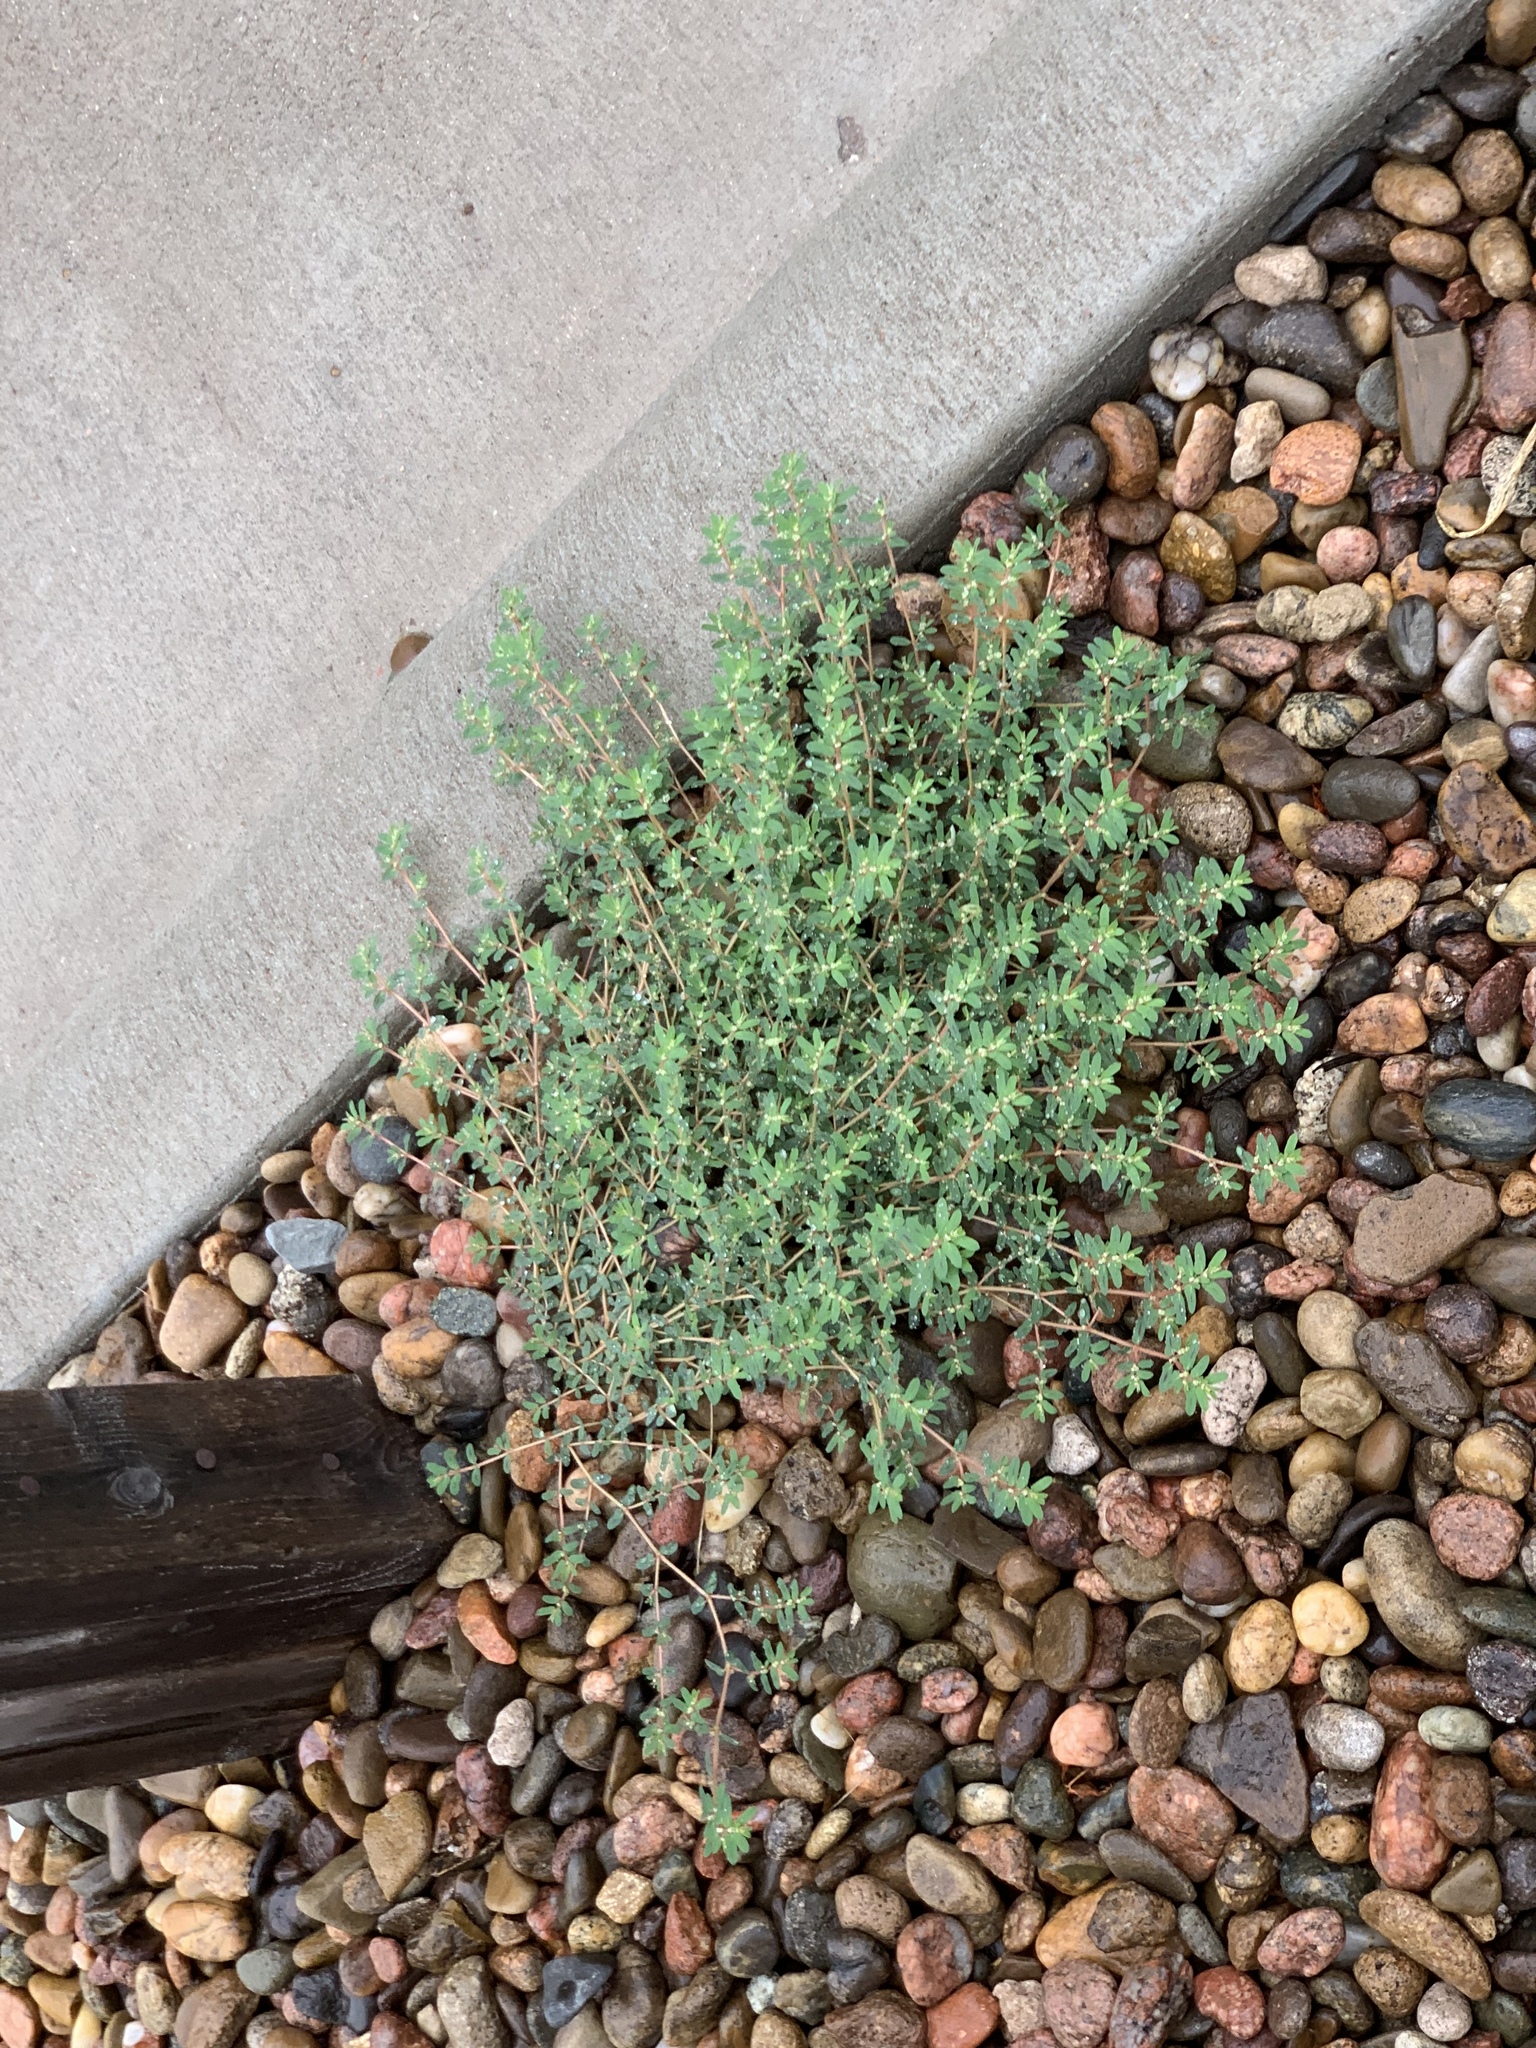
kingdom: Plantae
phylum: Tracheophyta
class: Magnoliopsida
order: Malpighiales
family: Euphorbiaceae
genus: Euphorbia
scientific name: Euphorbia maculata
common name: Spotted spurge
